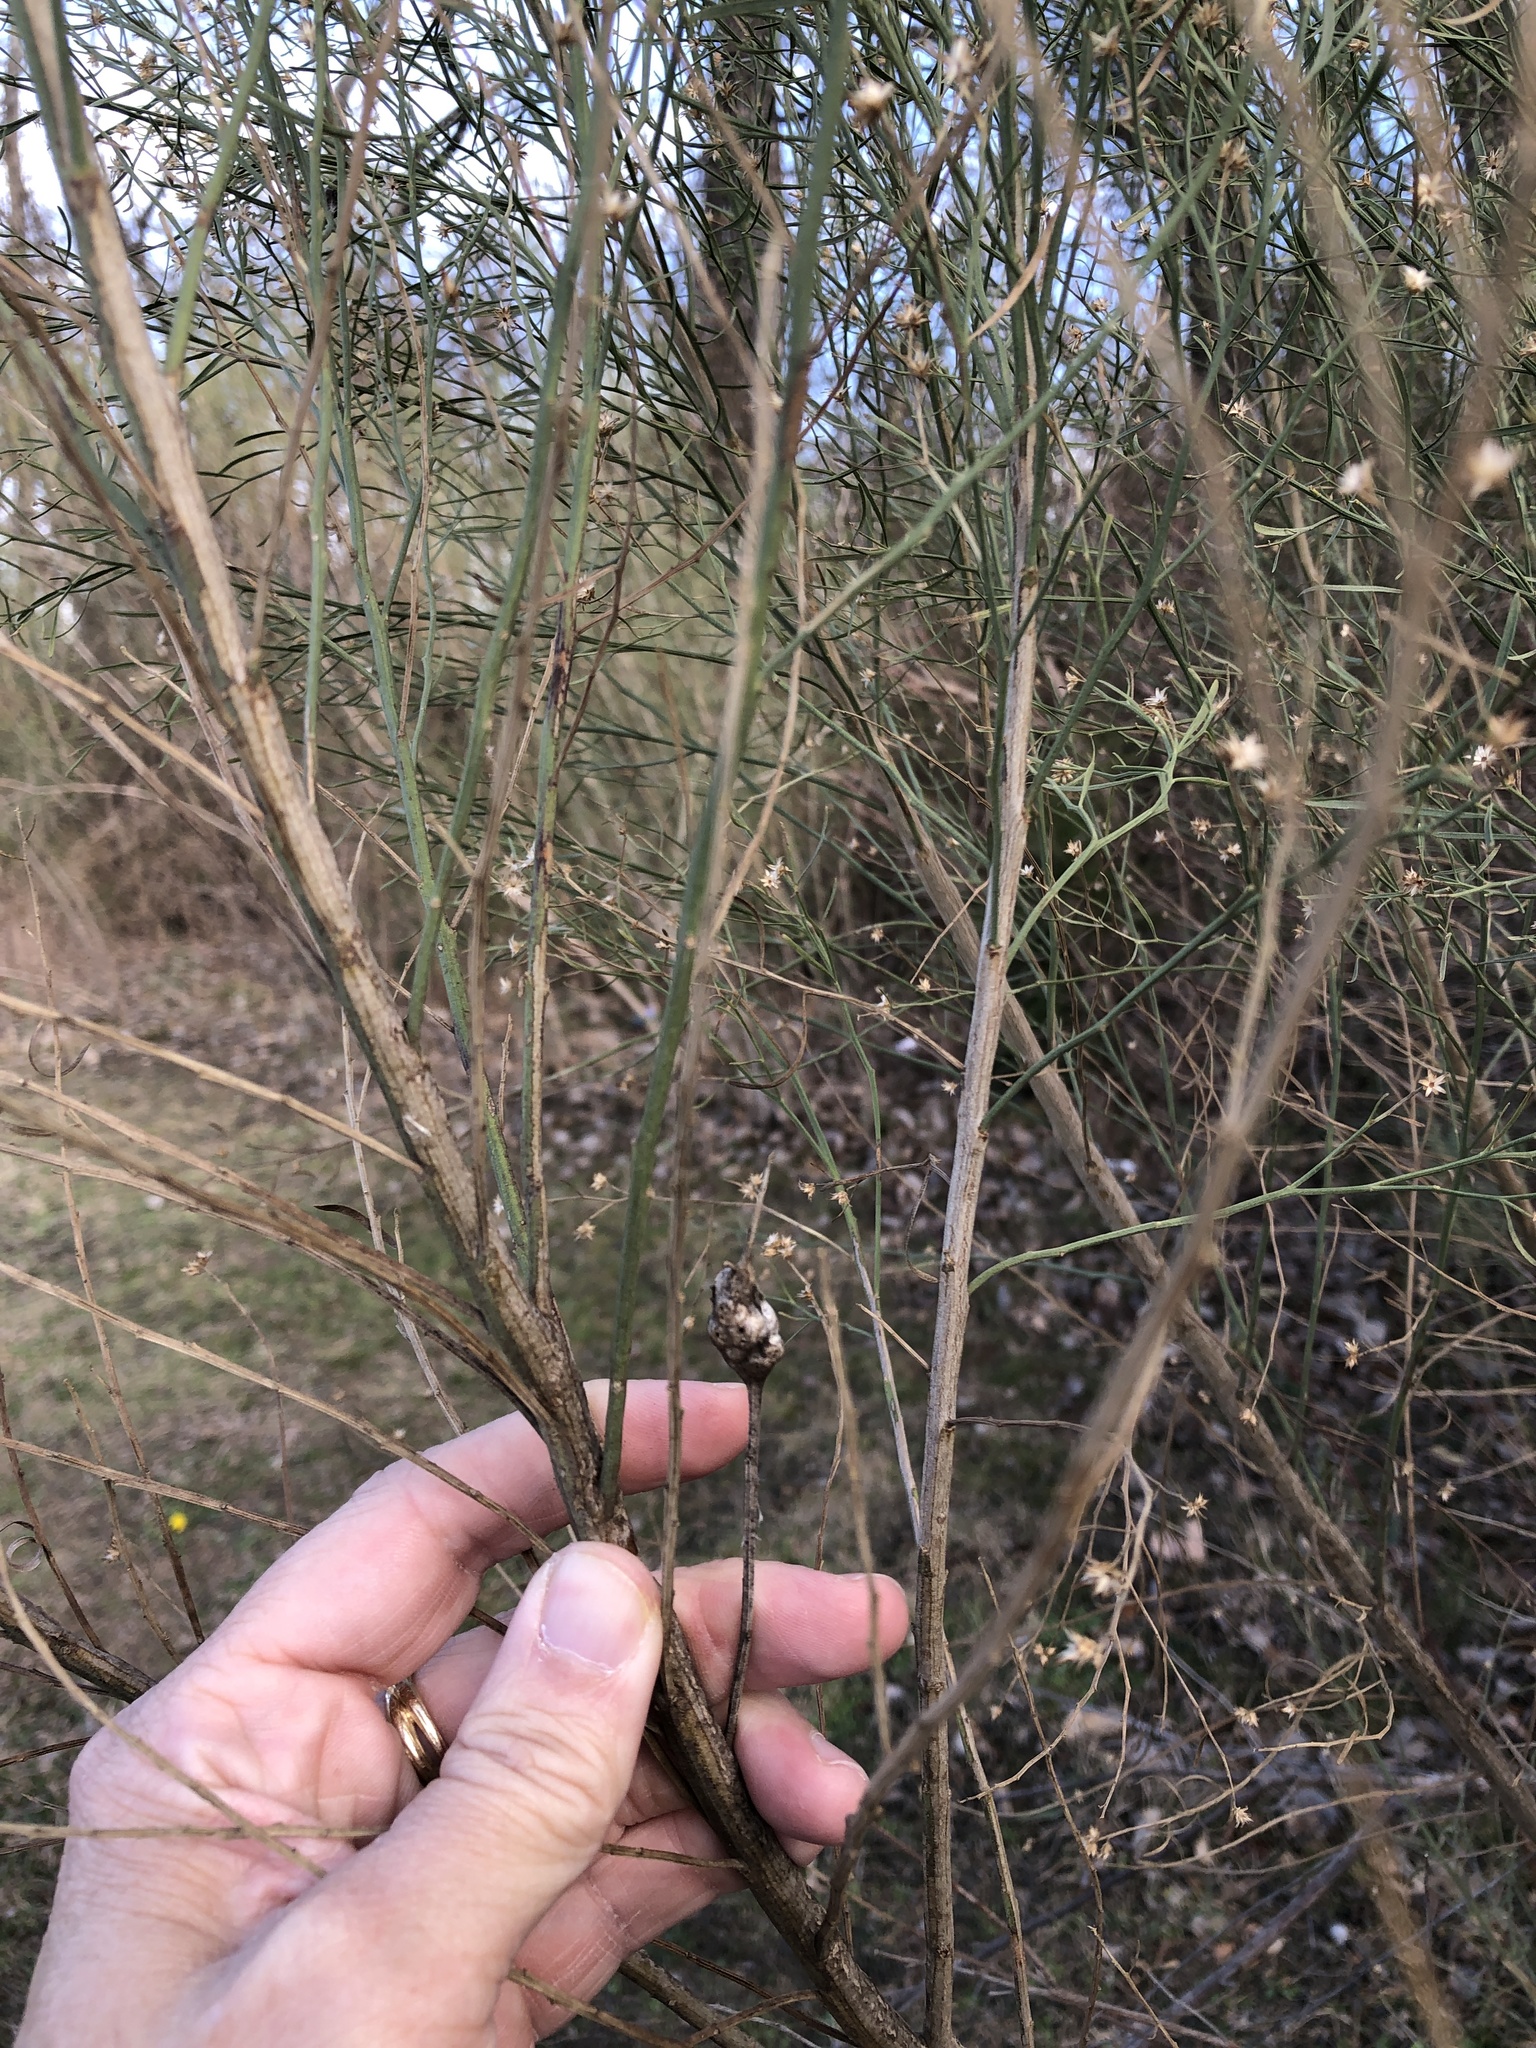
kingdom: Animalia
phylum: Arthropoda
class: Insecta
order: Diptera
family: Cecidomyiidae
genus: Neolasioptera
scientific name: Neolasioptera lathami
